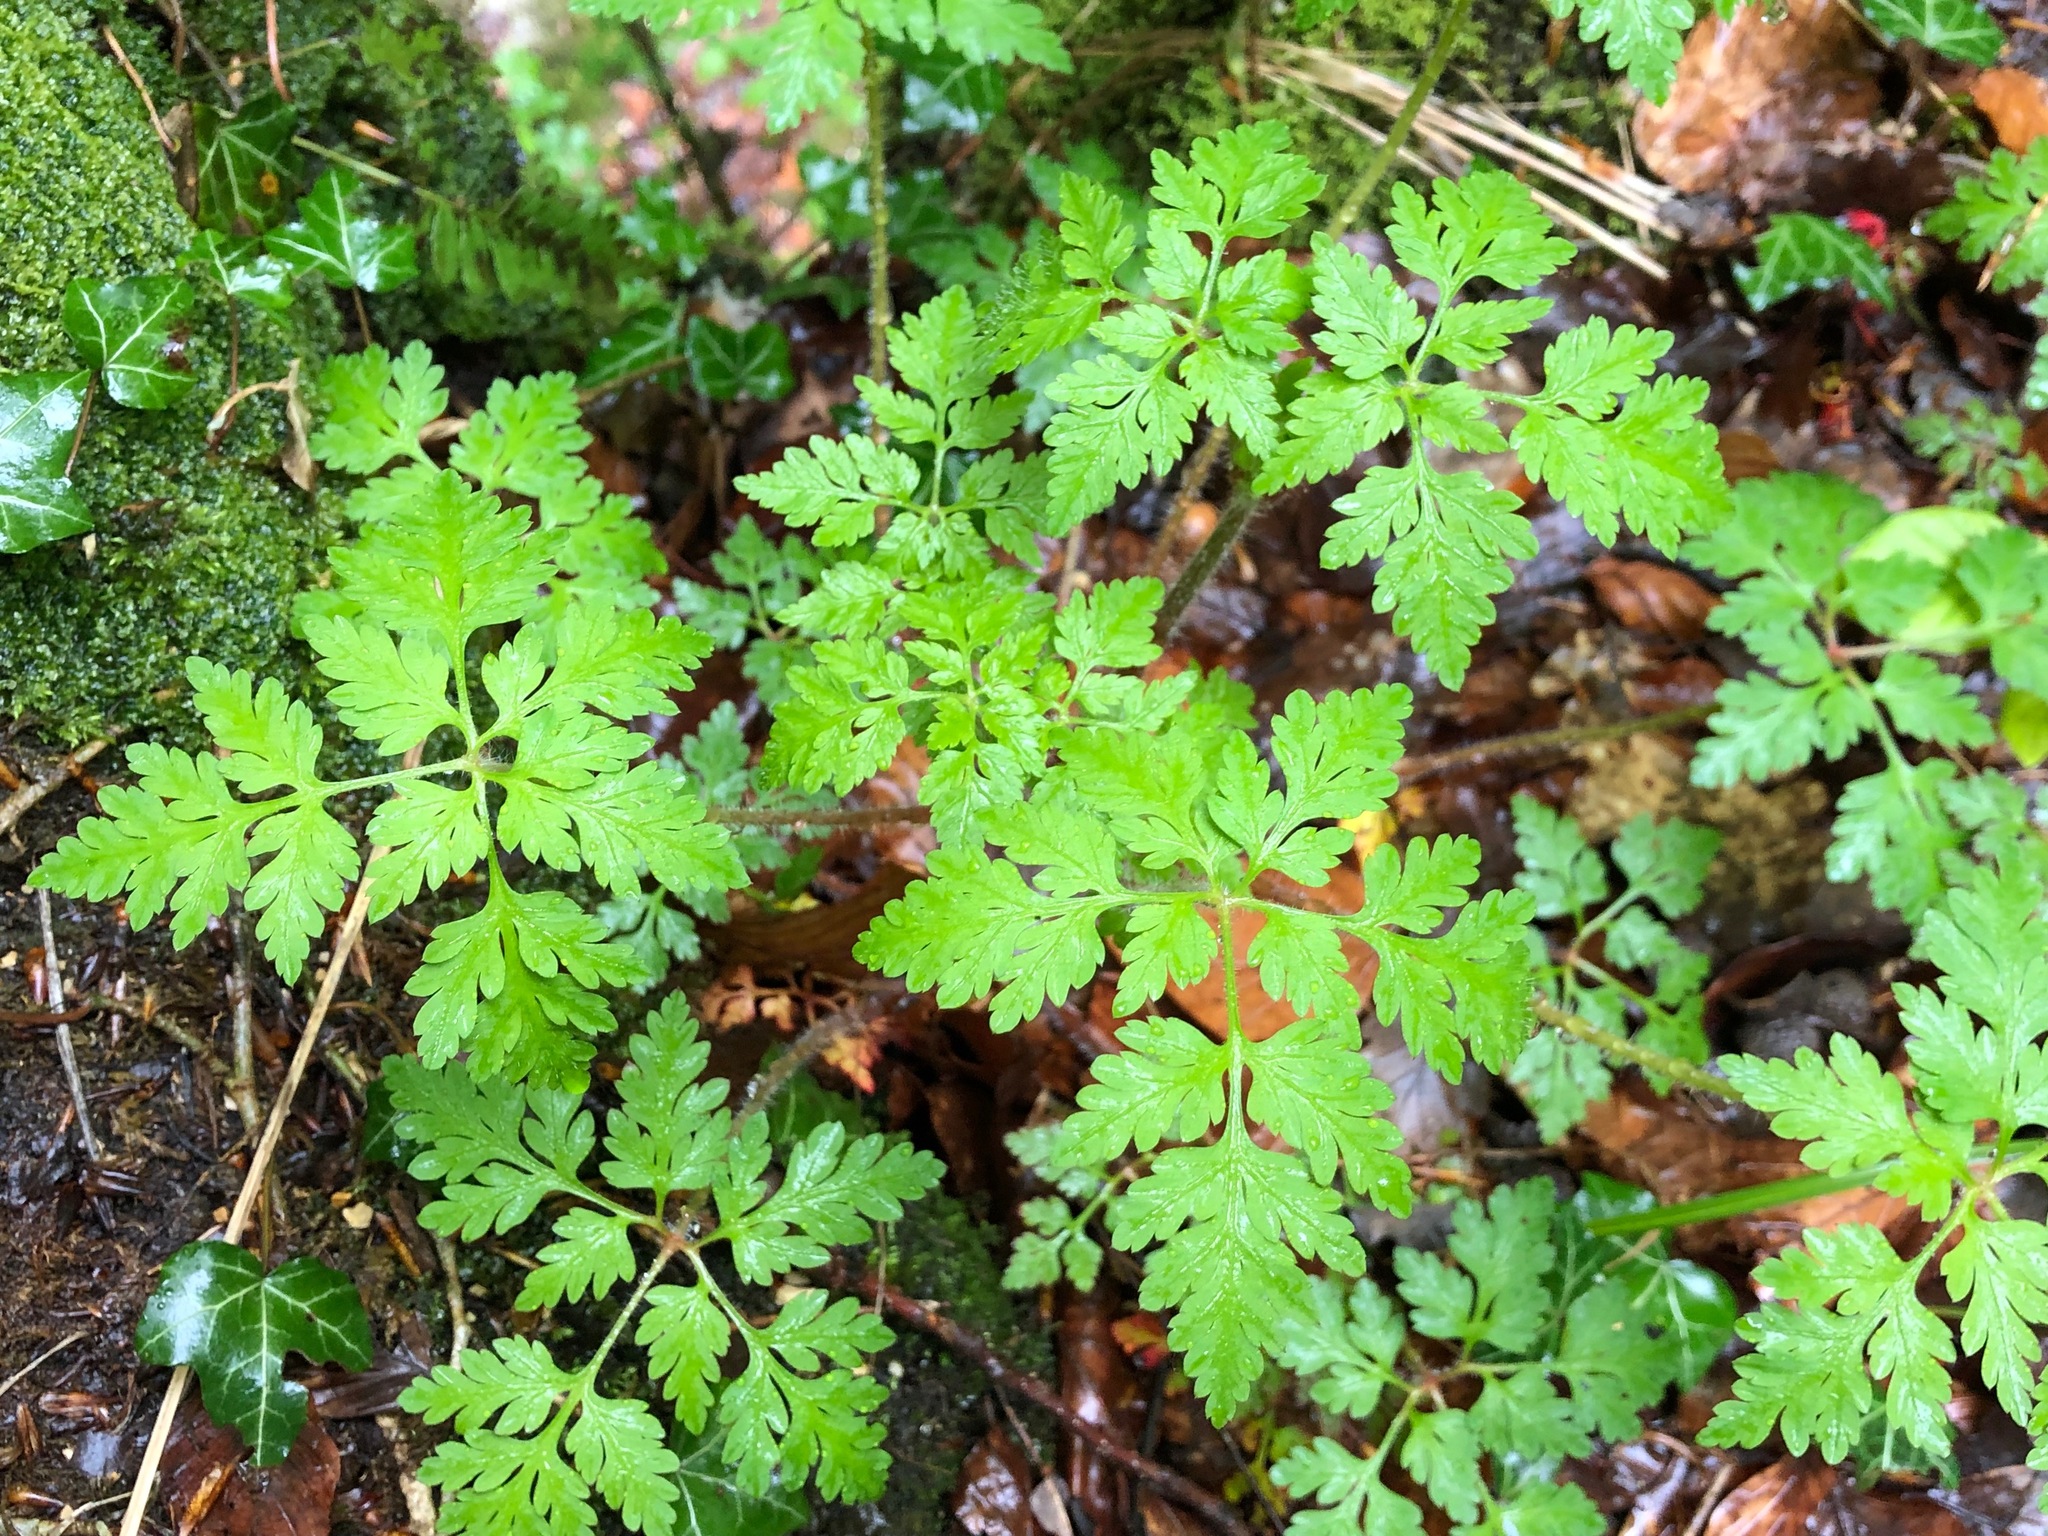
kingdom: Plantae
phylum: Tracheophyta
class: Magnoliopsida
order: Geraniales
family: Geraniaceae
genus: Geranium
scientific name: Geranium robertianum
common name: Herb-robert
